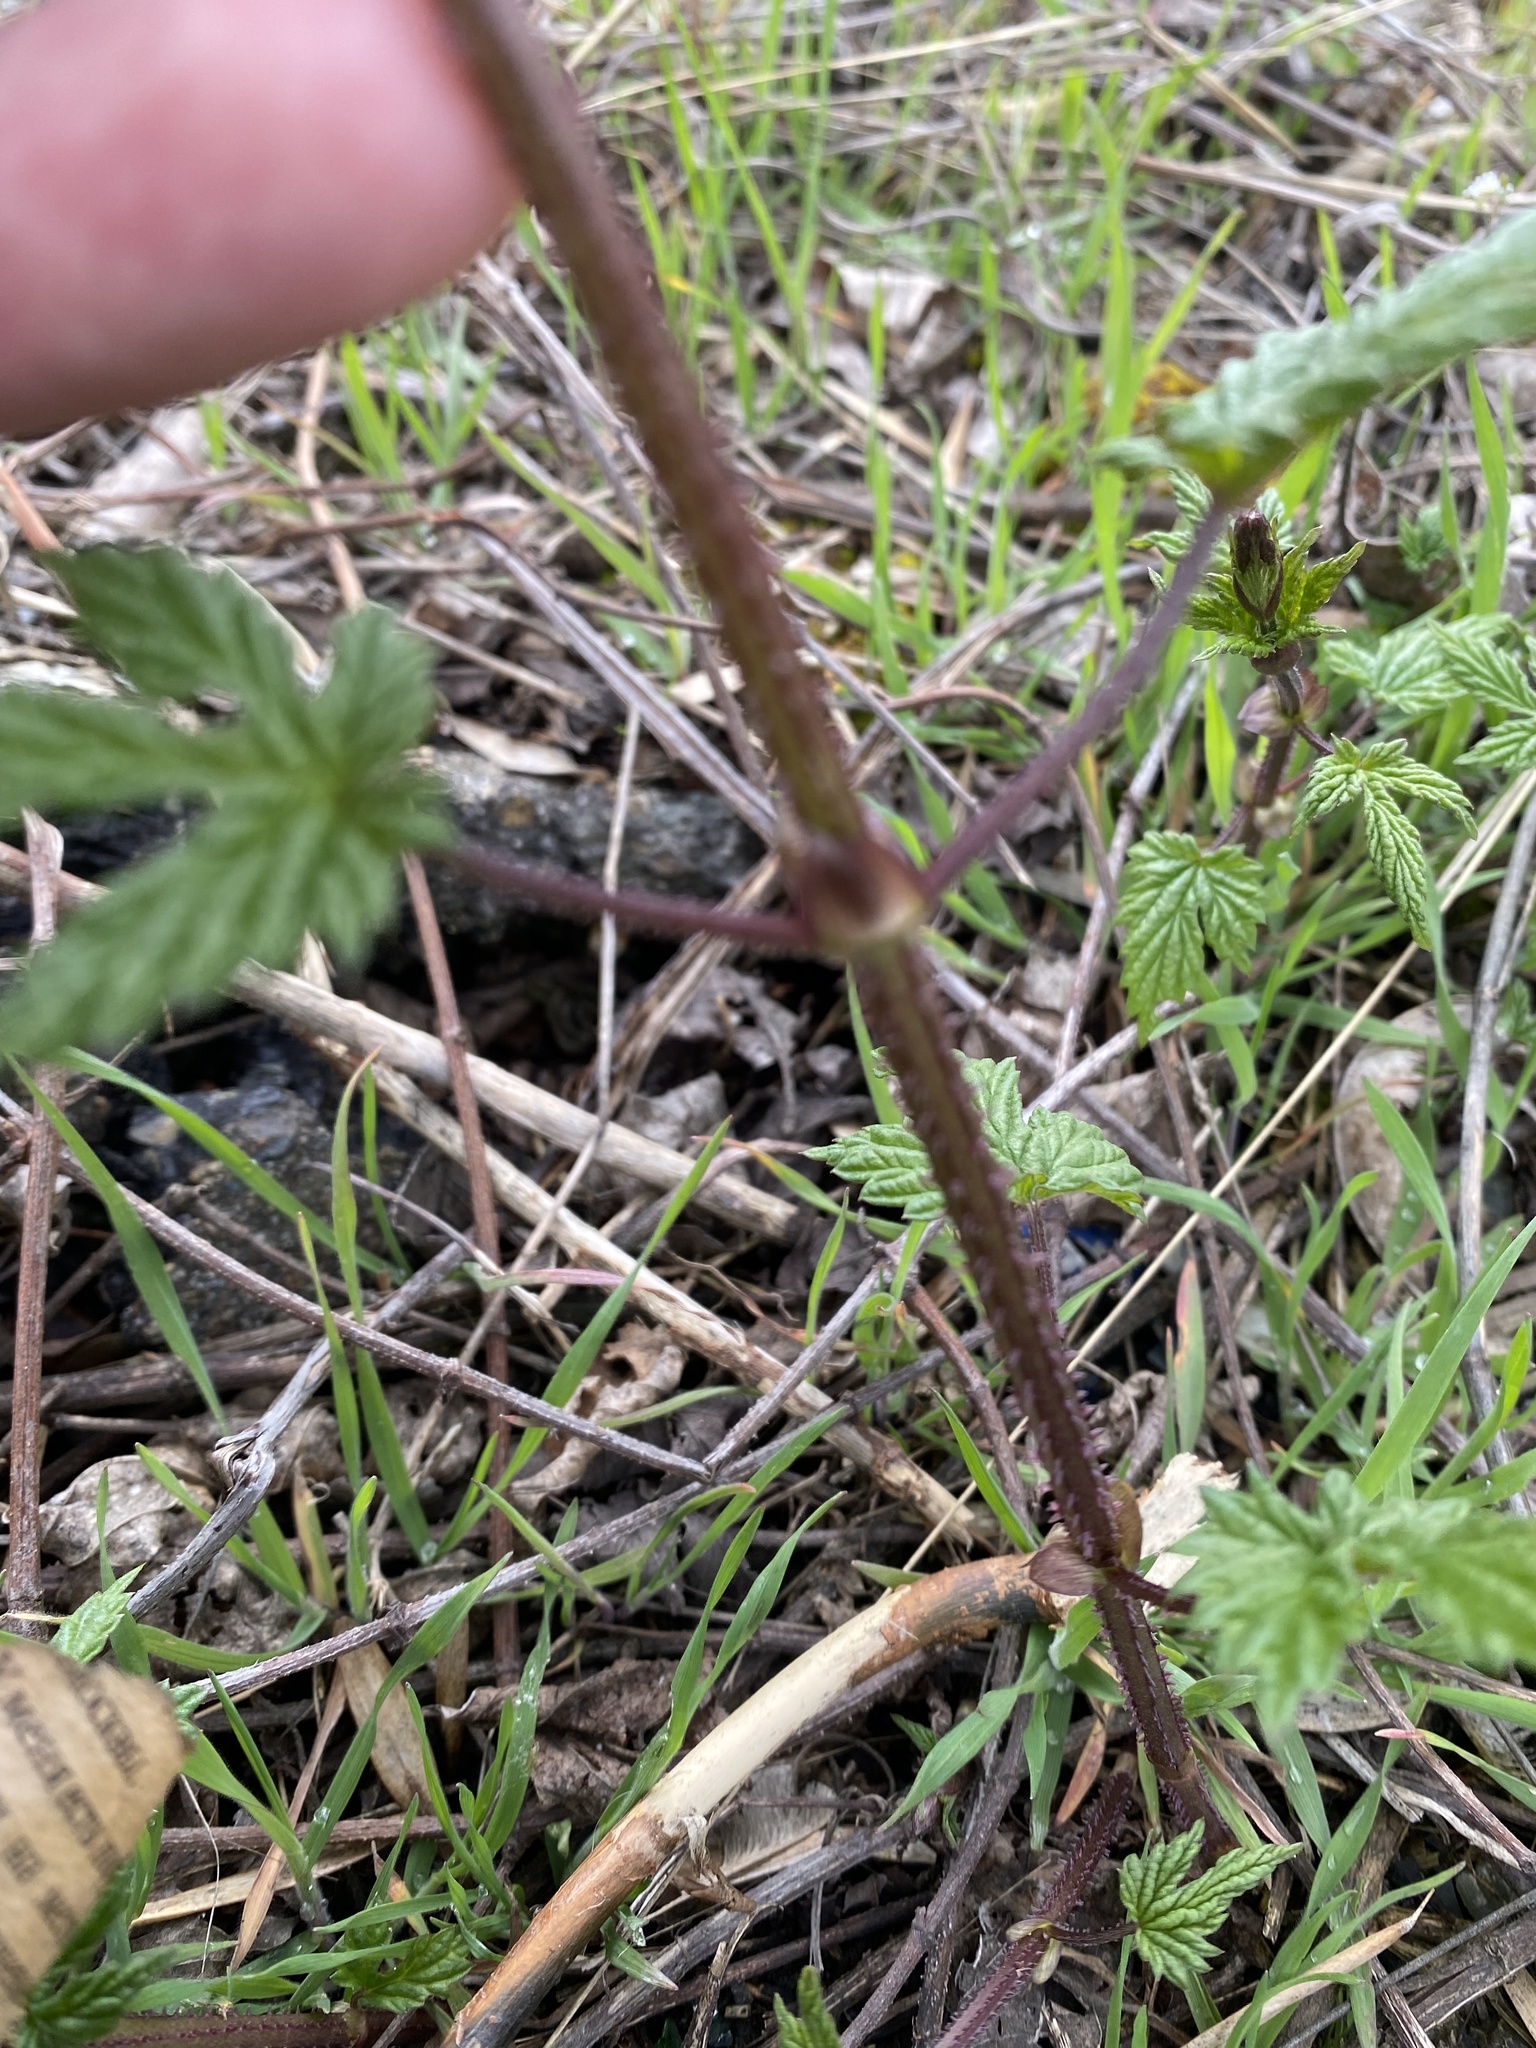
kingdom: Plantae
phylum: Tracheophyta
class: Magnoliopsida
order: Rosales
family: Cannabaceae
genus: Humulus
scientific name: Humulus lupulus
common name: Hop
